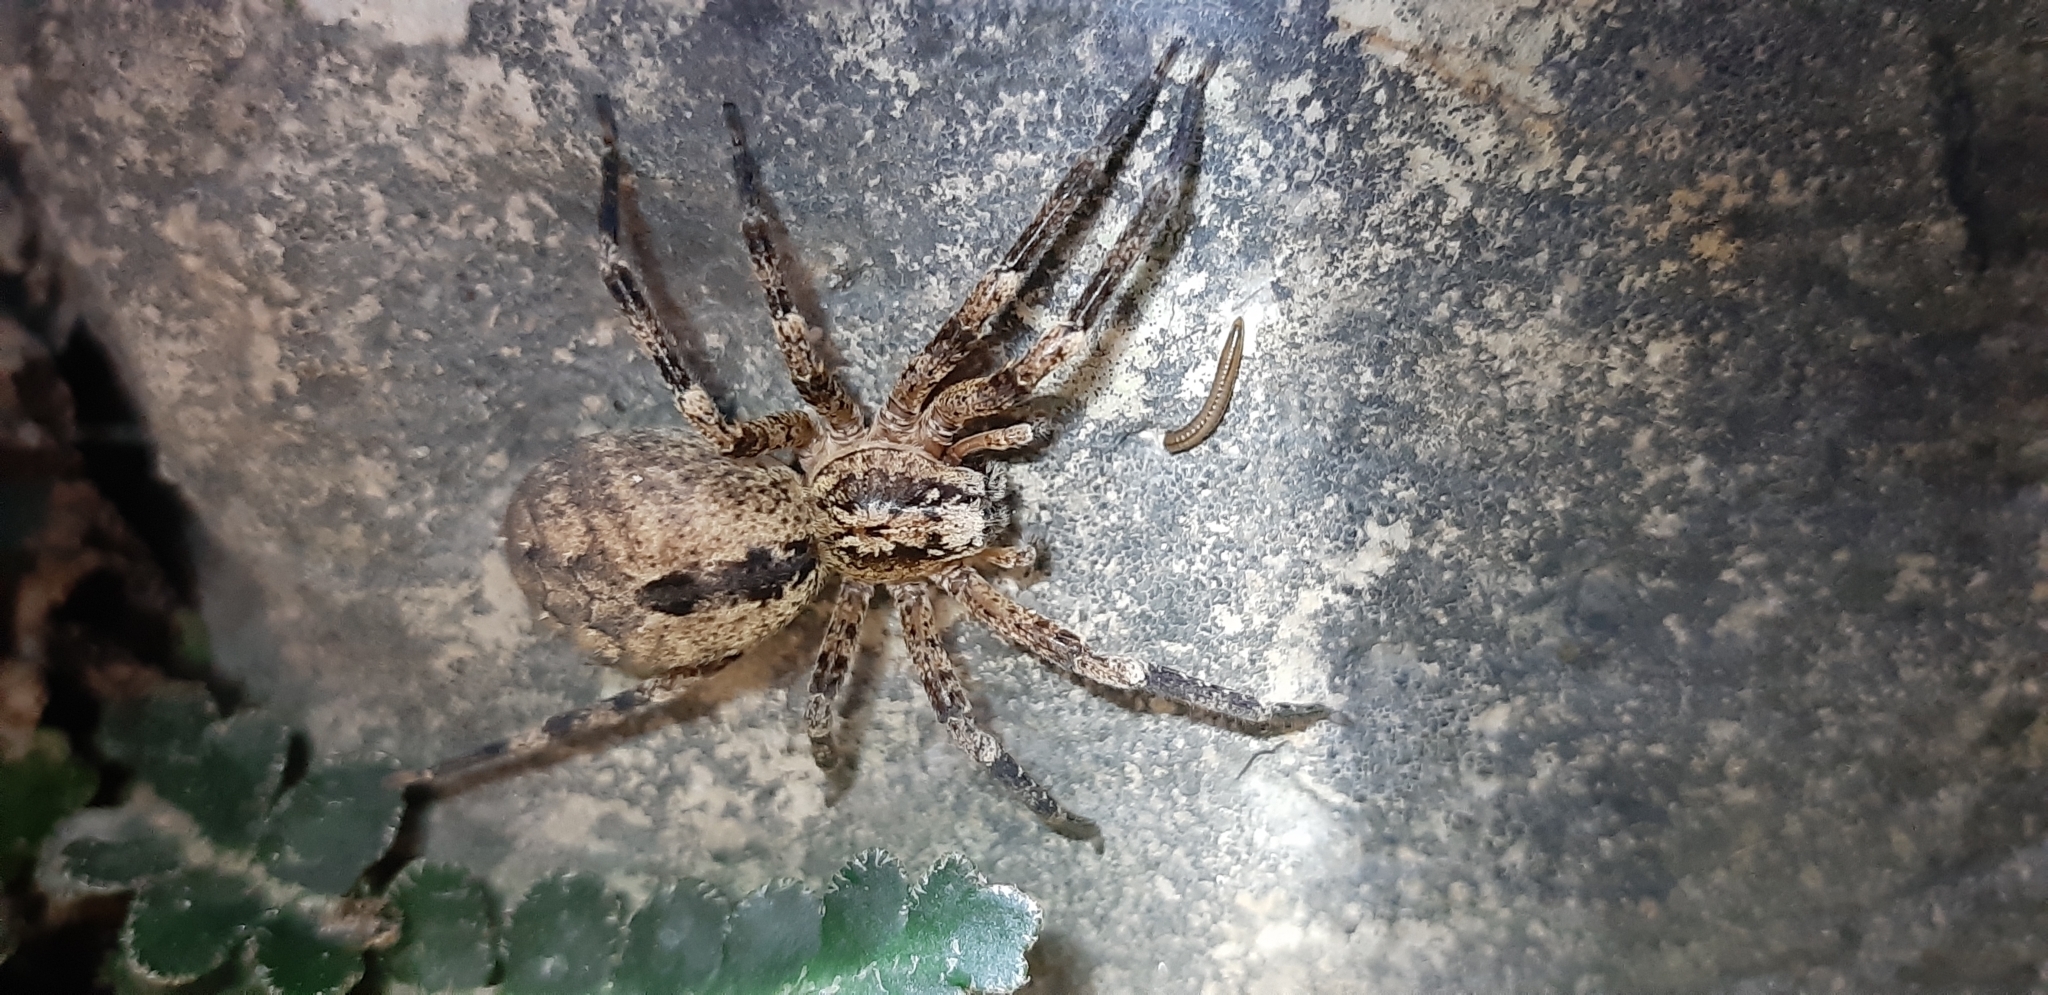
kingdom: Animalia
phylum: Arthropoda
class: Arachnida
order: Araneae
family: Zoropsidae
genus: Zoropsis
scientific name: Zoropsis spinimana
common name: Zoropsid spider
